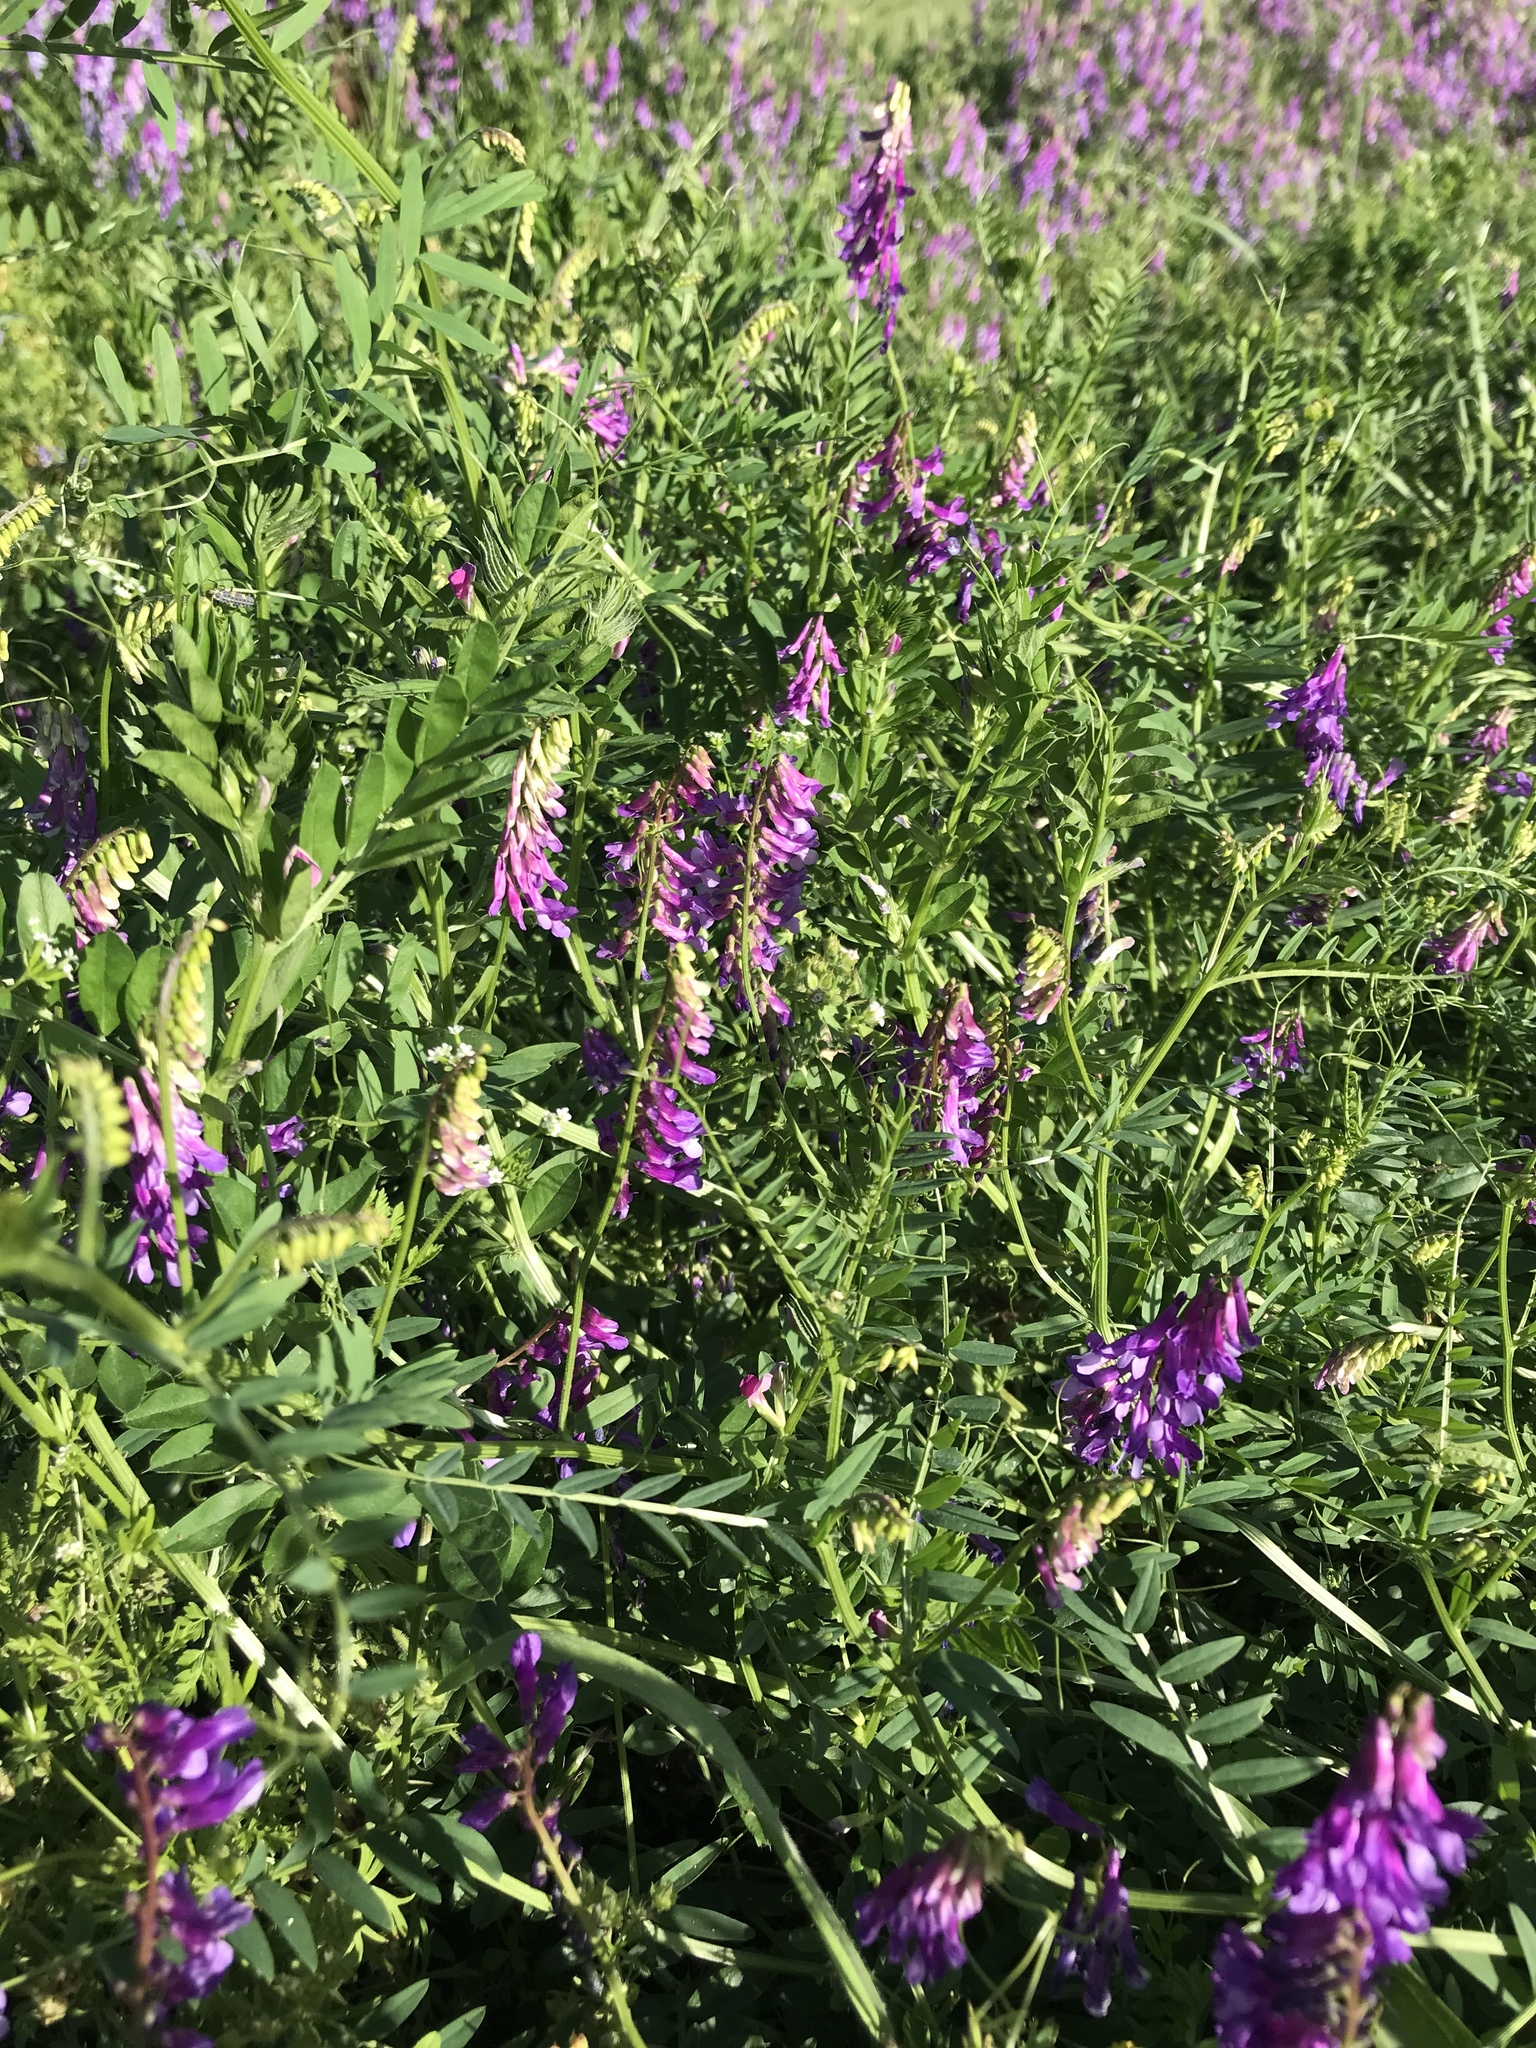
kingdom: Plantae
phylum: Tracheophyta
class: Magnoliopsida
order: Fabales
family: Fabaceae
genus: Vicia
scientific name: Vicia villosa
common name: Fodder vetch
